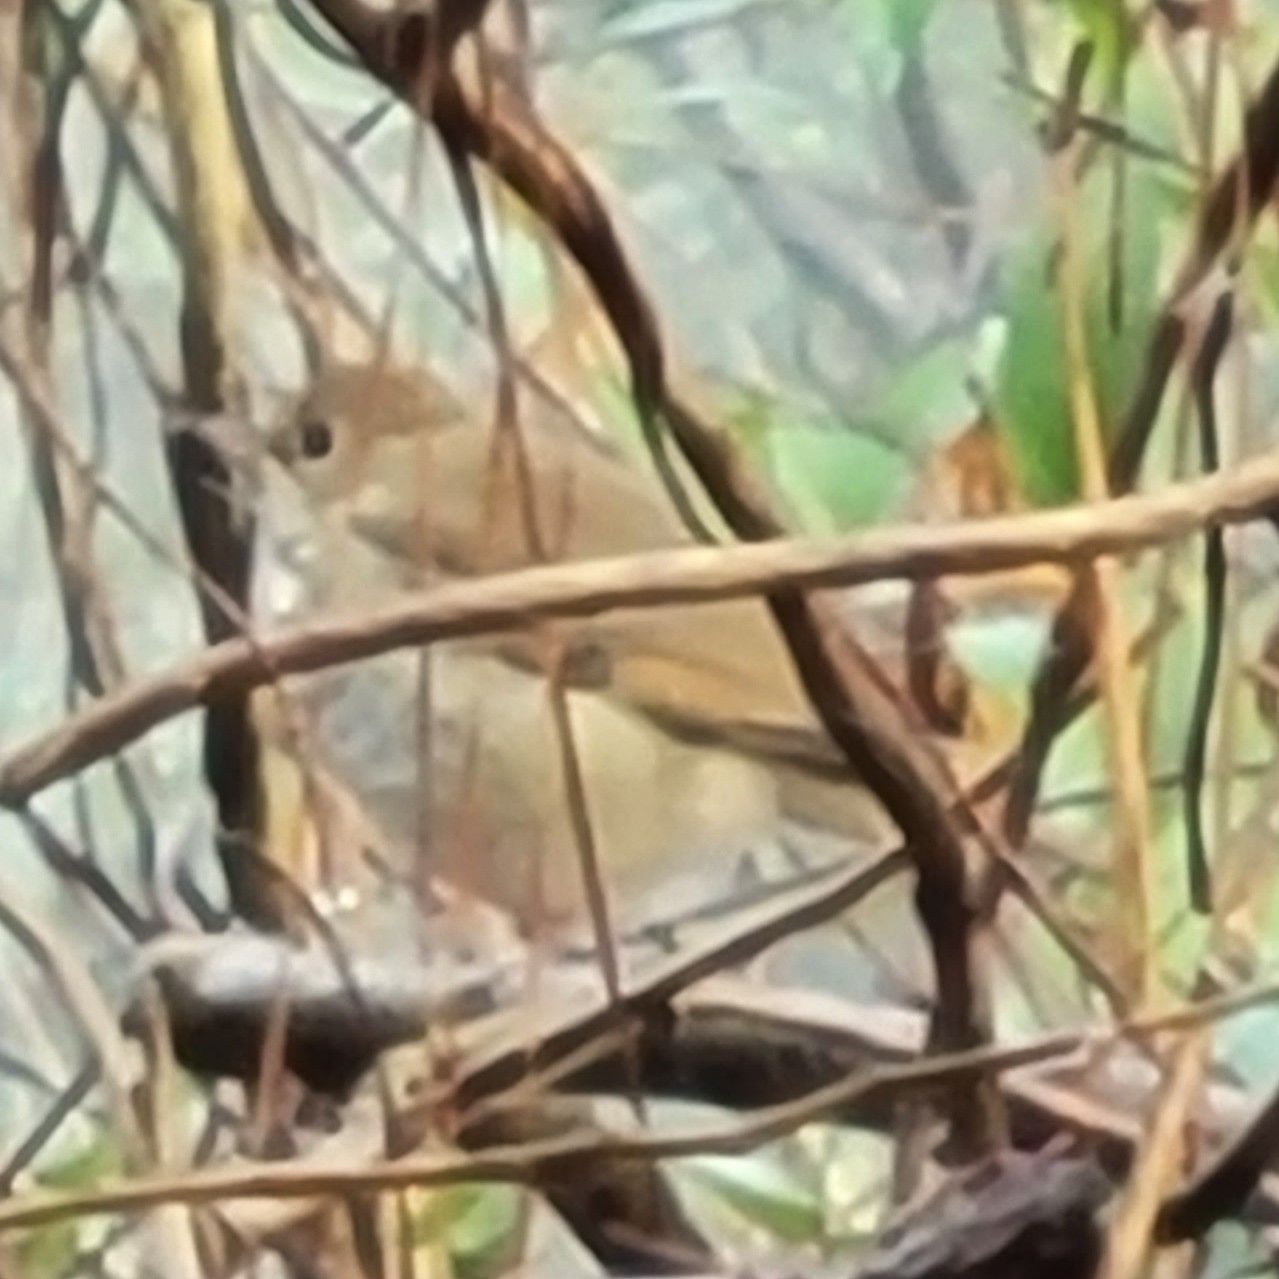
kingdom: Animalia
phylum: Chordata
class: Aves
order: Passeriformes
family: Turdidae
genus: Catharus
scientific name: Catharus guttatus
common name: Hermit thrush
